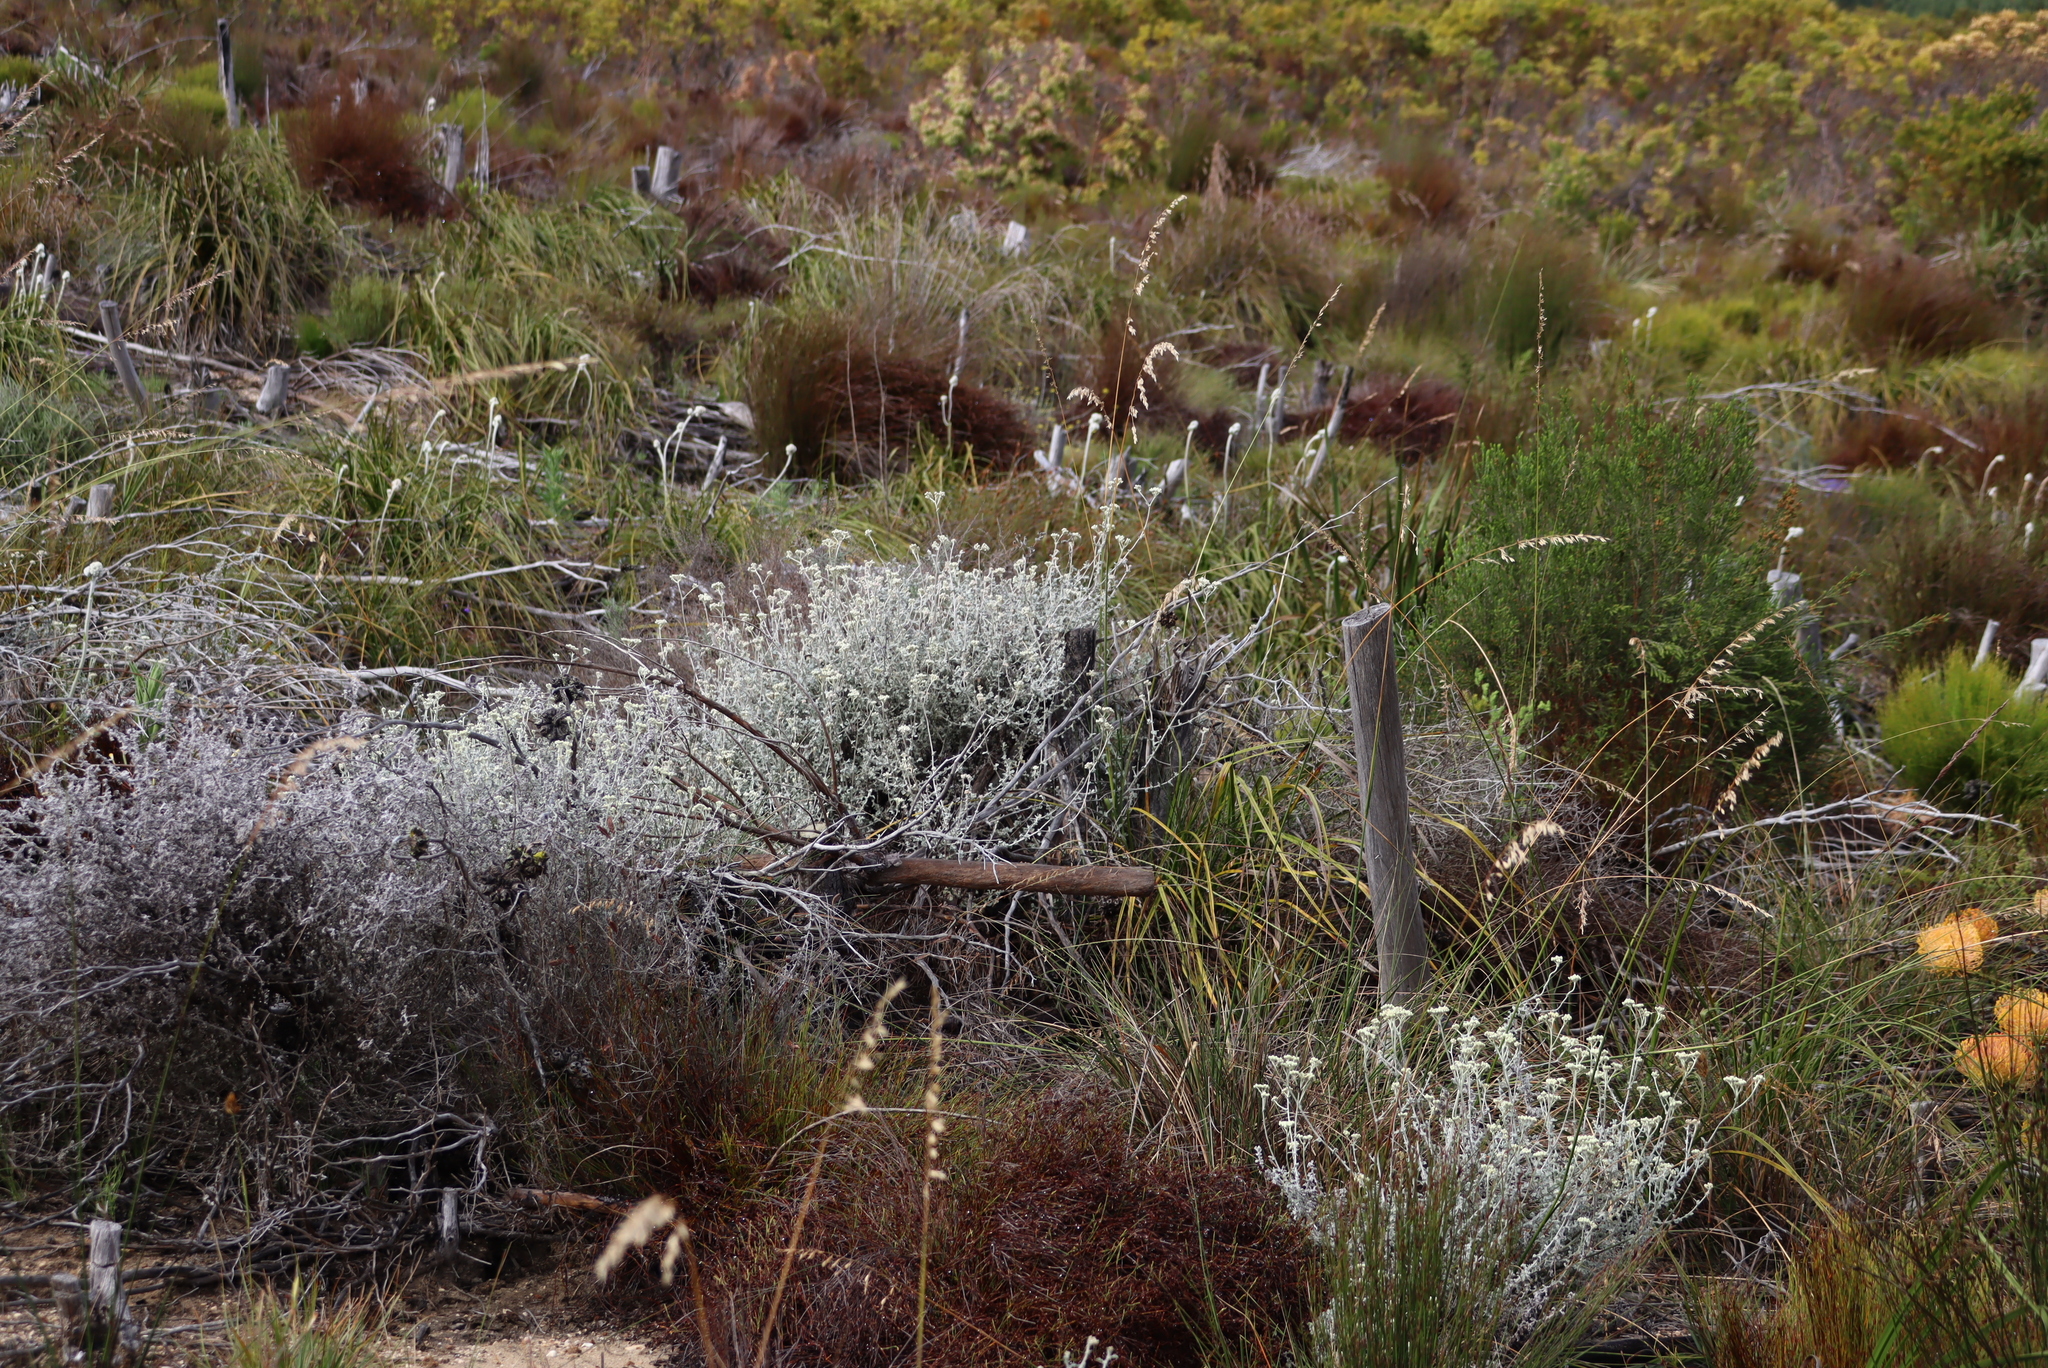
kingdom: Plantae
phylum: Tracheophyta
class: Magnoliopsida
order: Asterales
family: Asteraceae
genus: Helichrysum
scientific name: Helichrysum patulum
